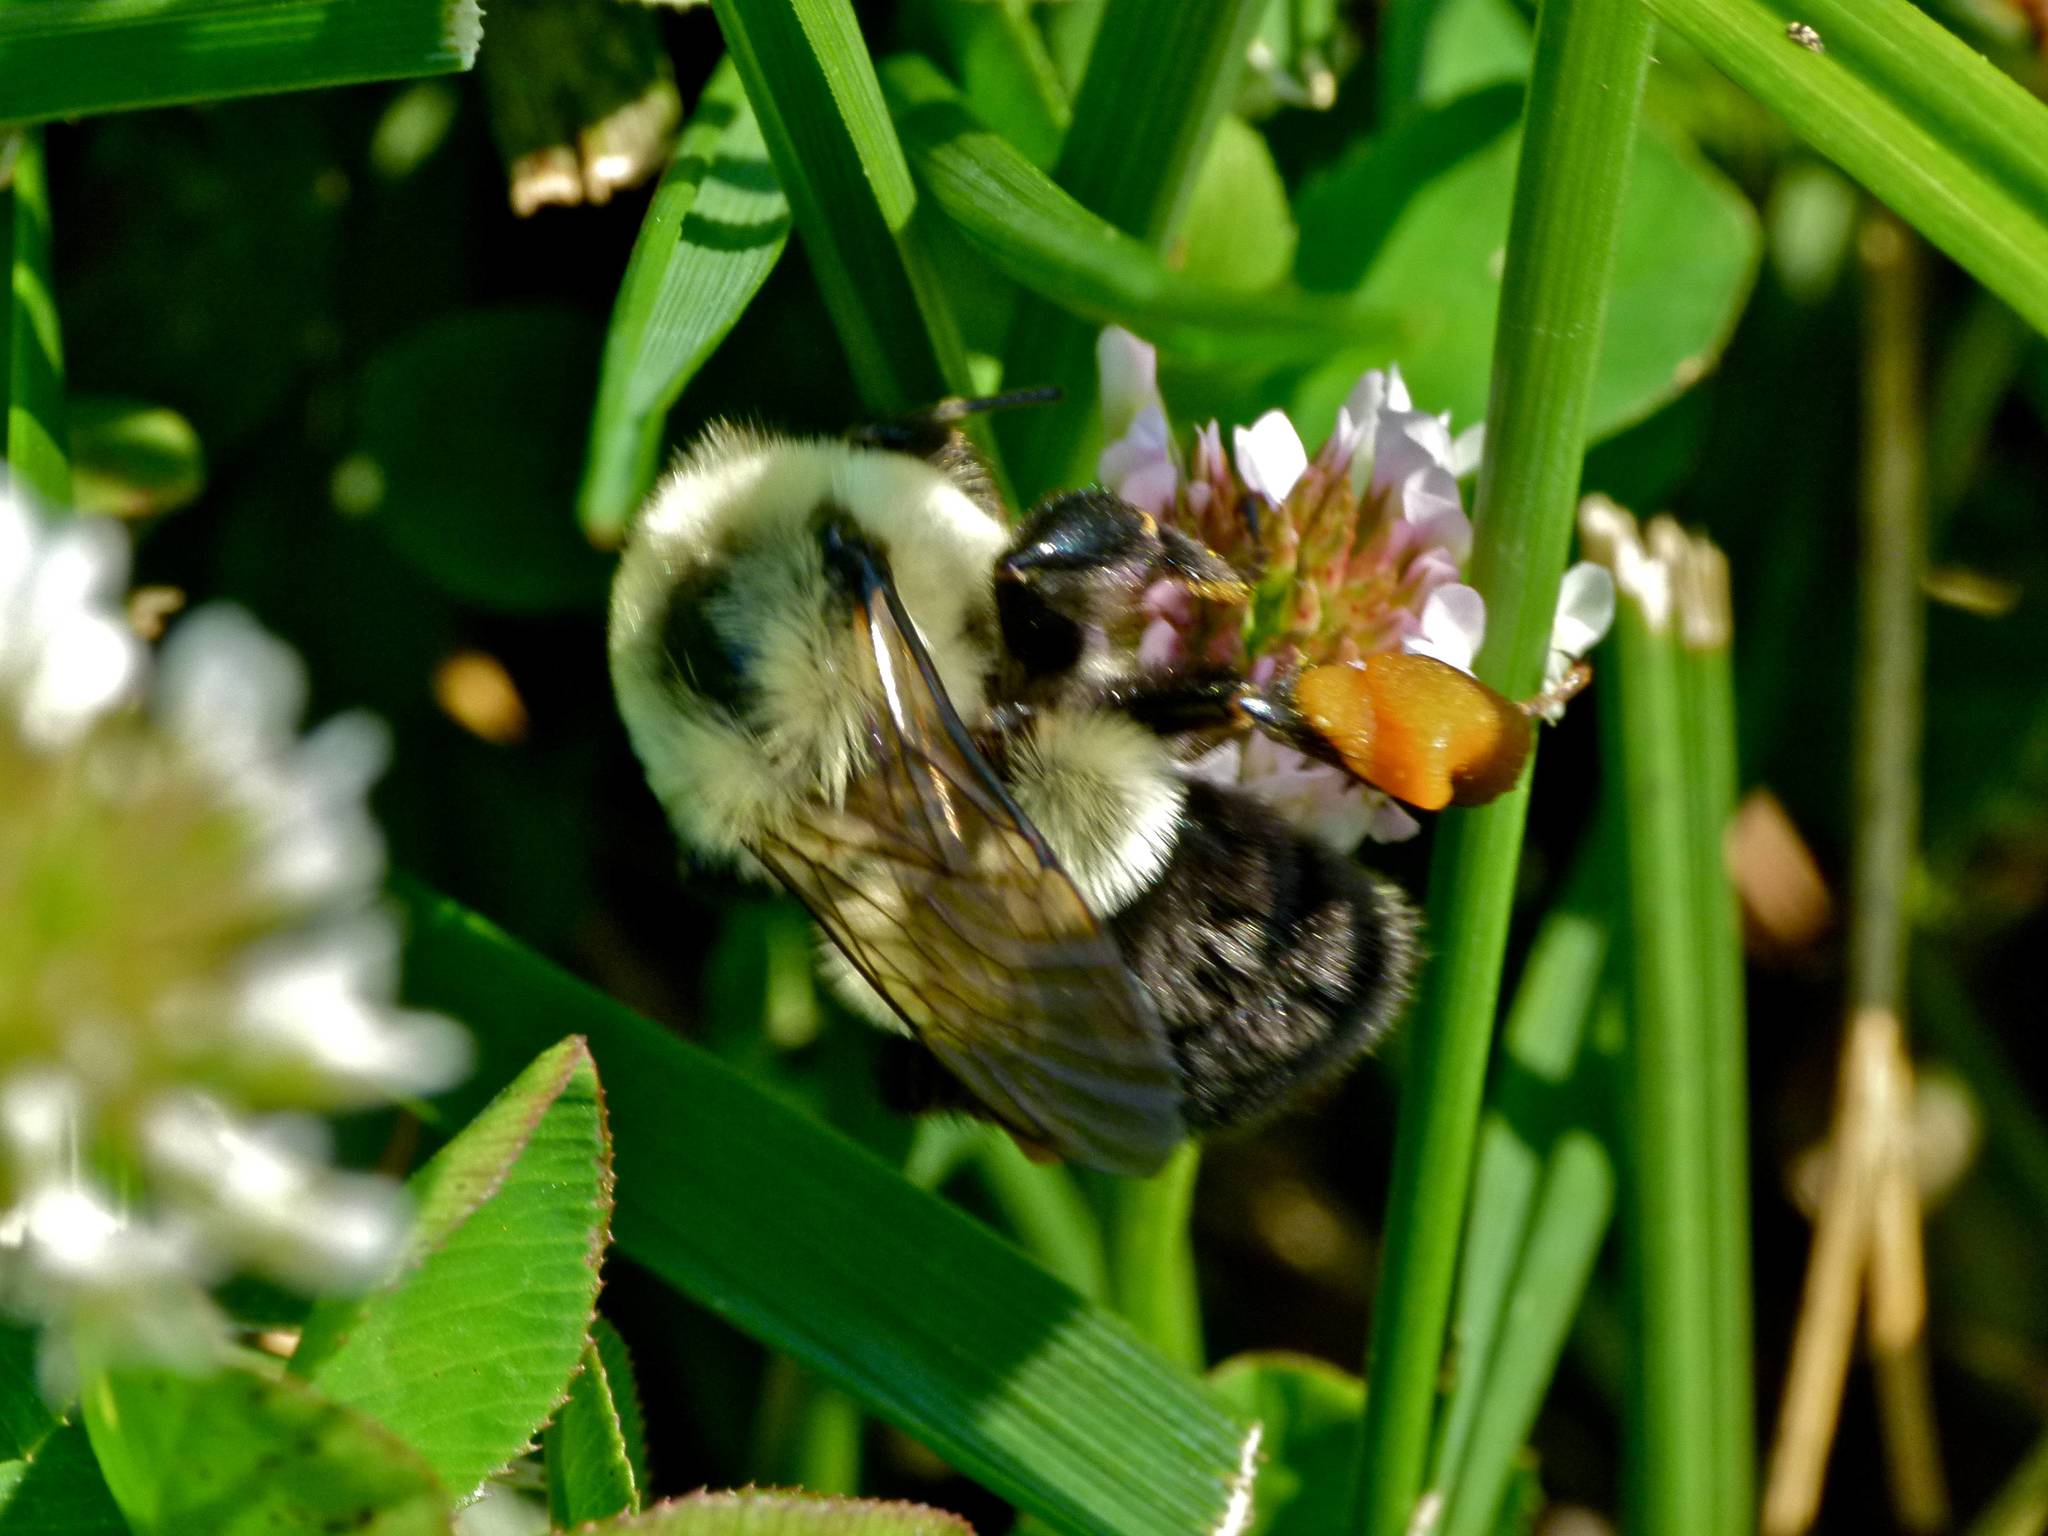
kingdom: Animalia
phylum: Arthropoda
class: Insecta
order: Hymenoptera
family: Apidae
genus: Bombus
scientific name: Bombus impatiens
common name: Common eastern bumble bee
